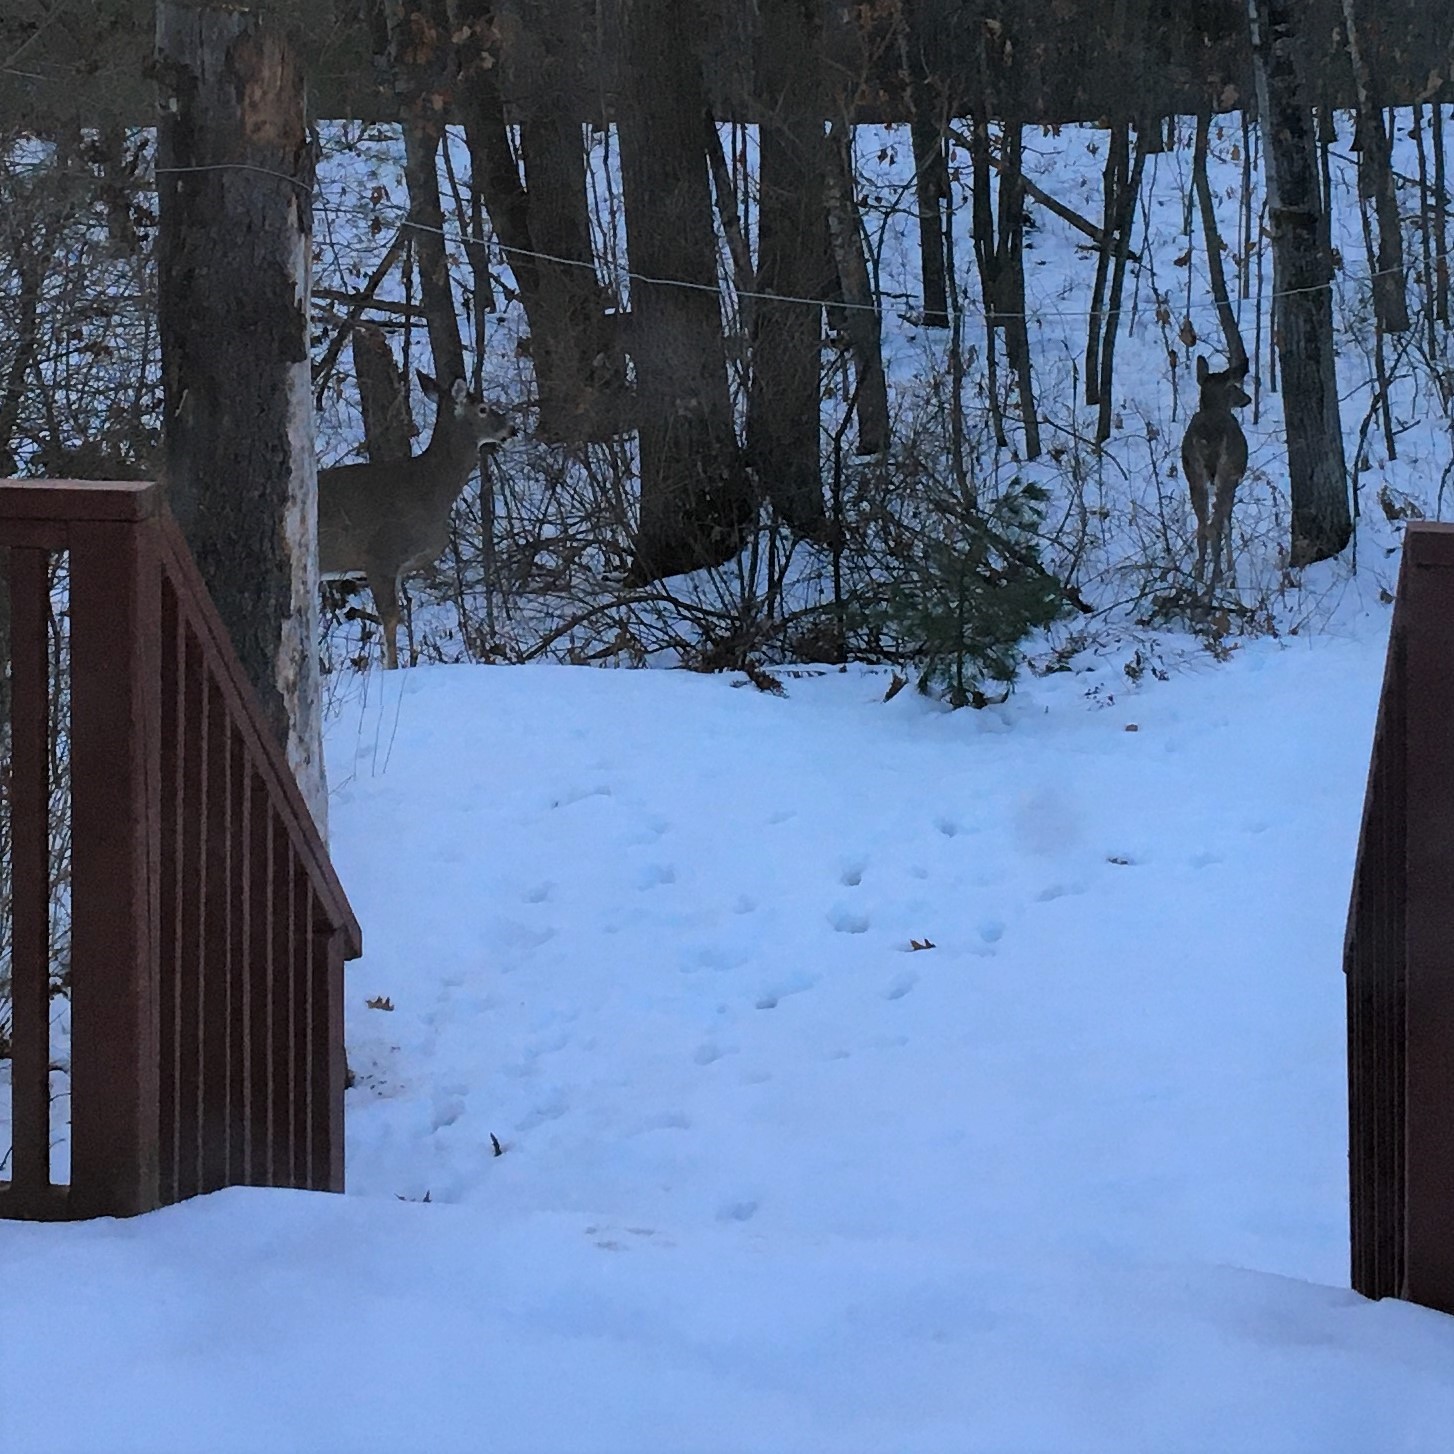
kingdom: Animalia
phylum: Chordata
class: Mammalia
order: Artiodactyla
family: Cervidae
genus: Odocoileus
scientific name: Odocoileus virginianus
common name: White-tailed deer
